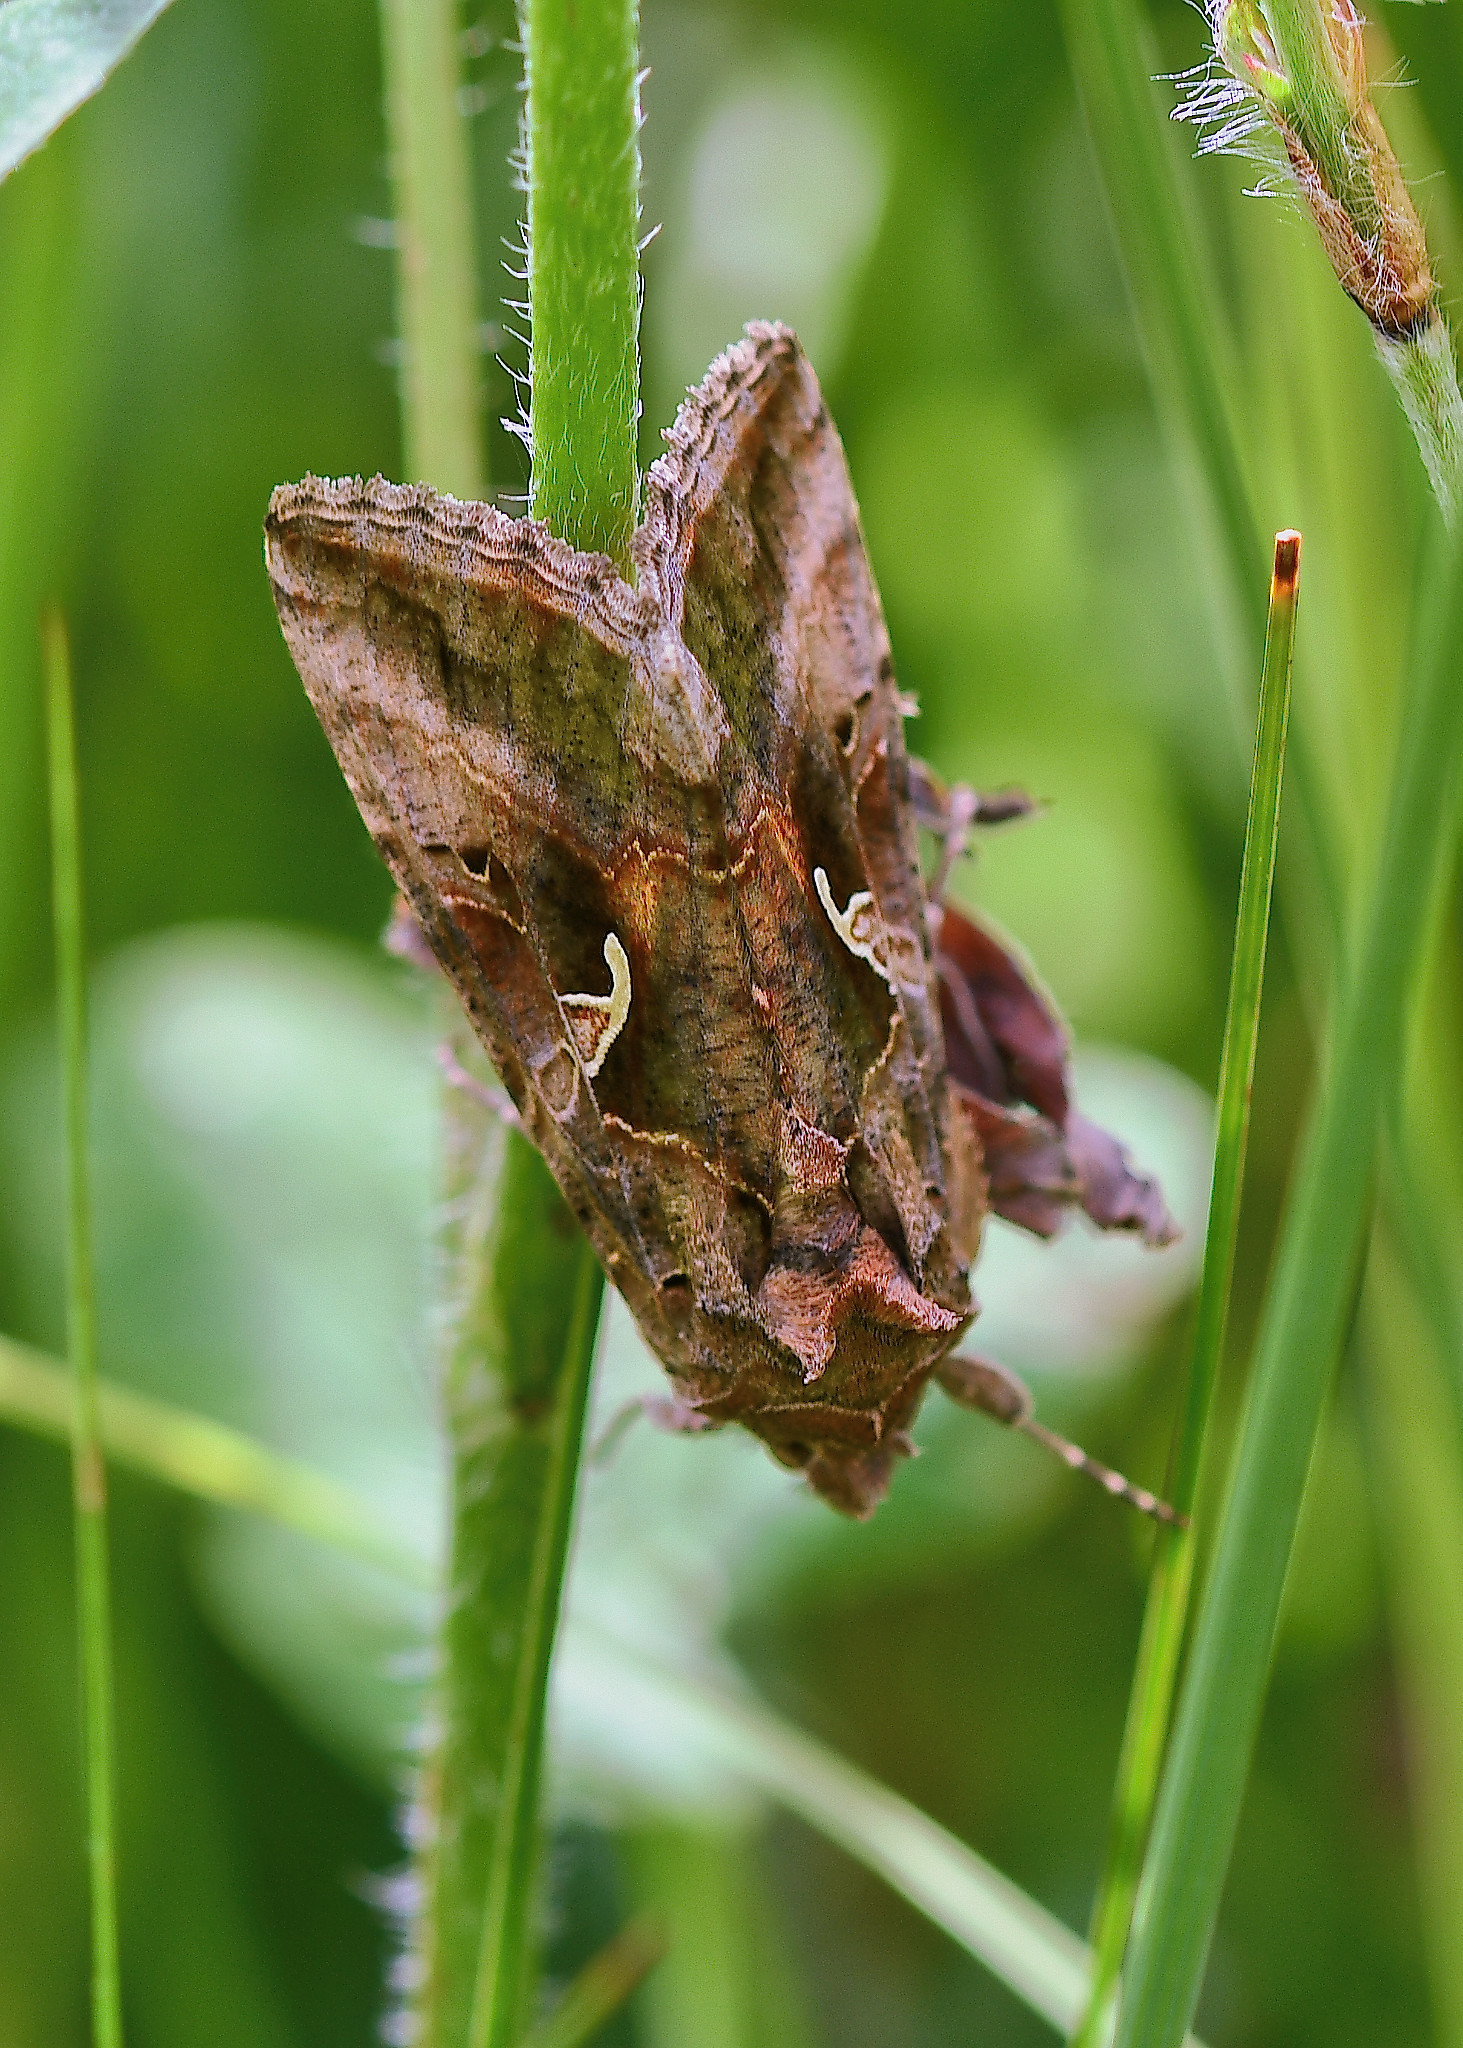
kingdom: Animalia
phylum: Arthropoda
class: Insecta
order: Lepidoptera
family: Noctuidae
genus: Autographa
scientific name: Autographa gamma
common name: Silver y
